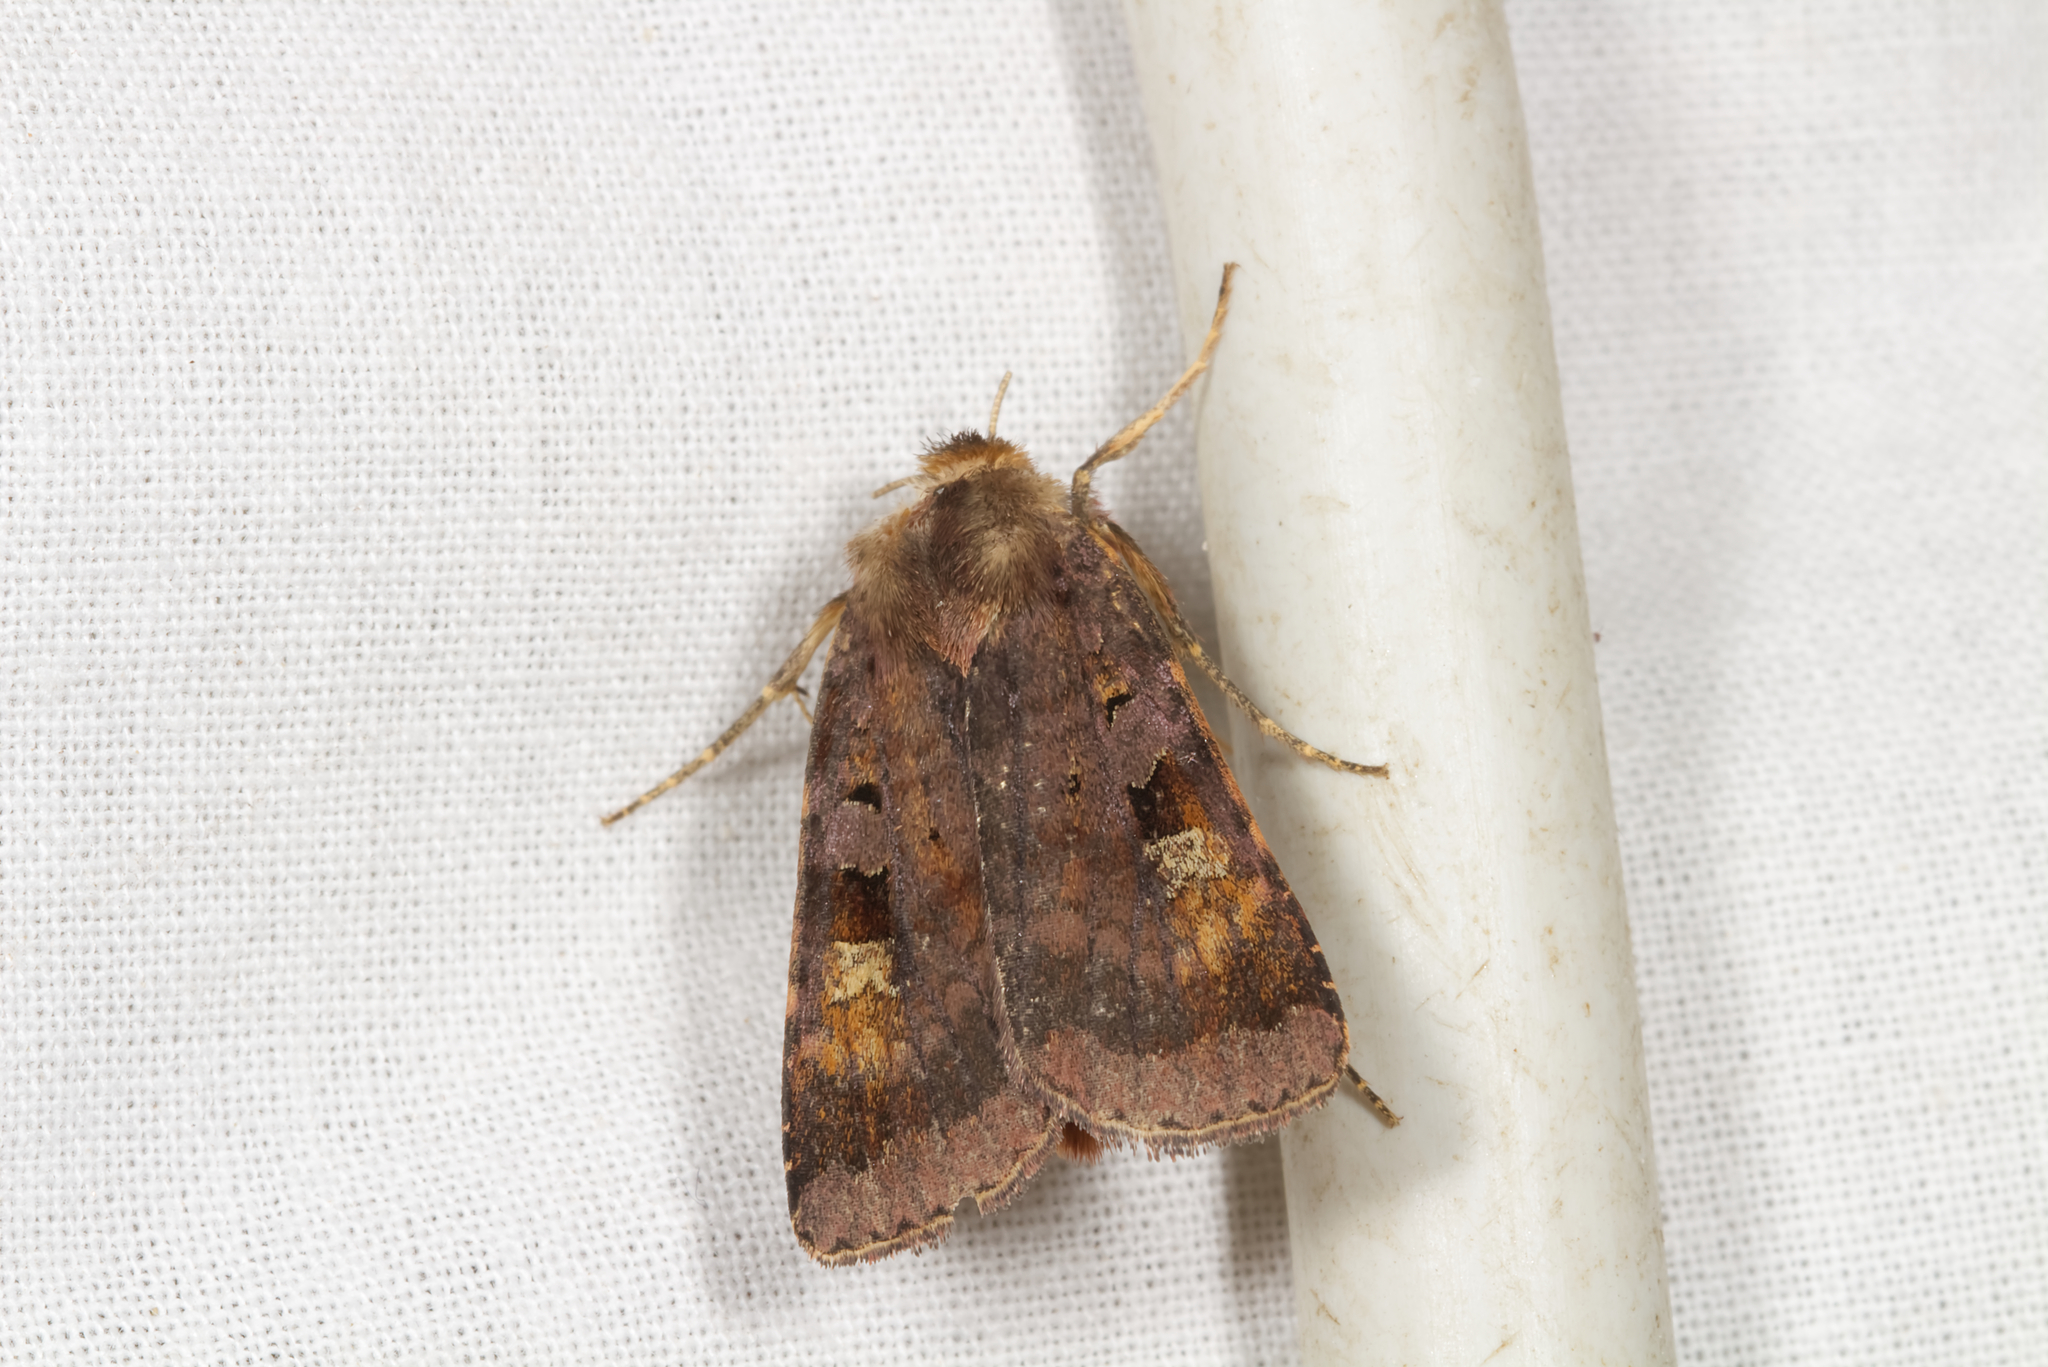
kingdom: Animalia
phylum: Arthropoda
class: Insecta
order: Lepidoptera
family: Noctuidae
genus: Diarsia
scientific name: Diarsia brunnea
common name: Purple clay
